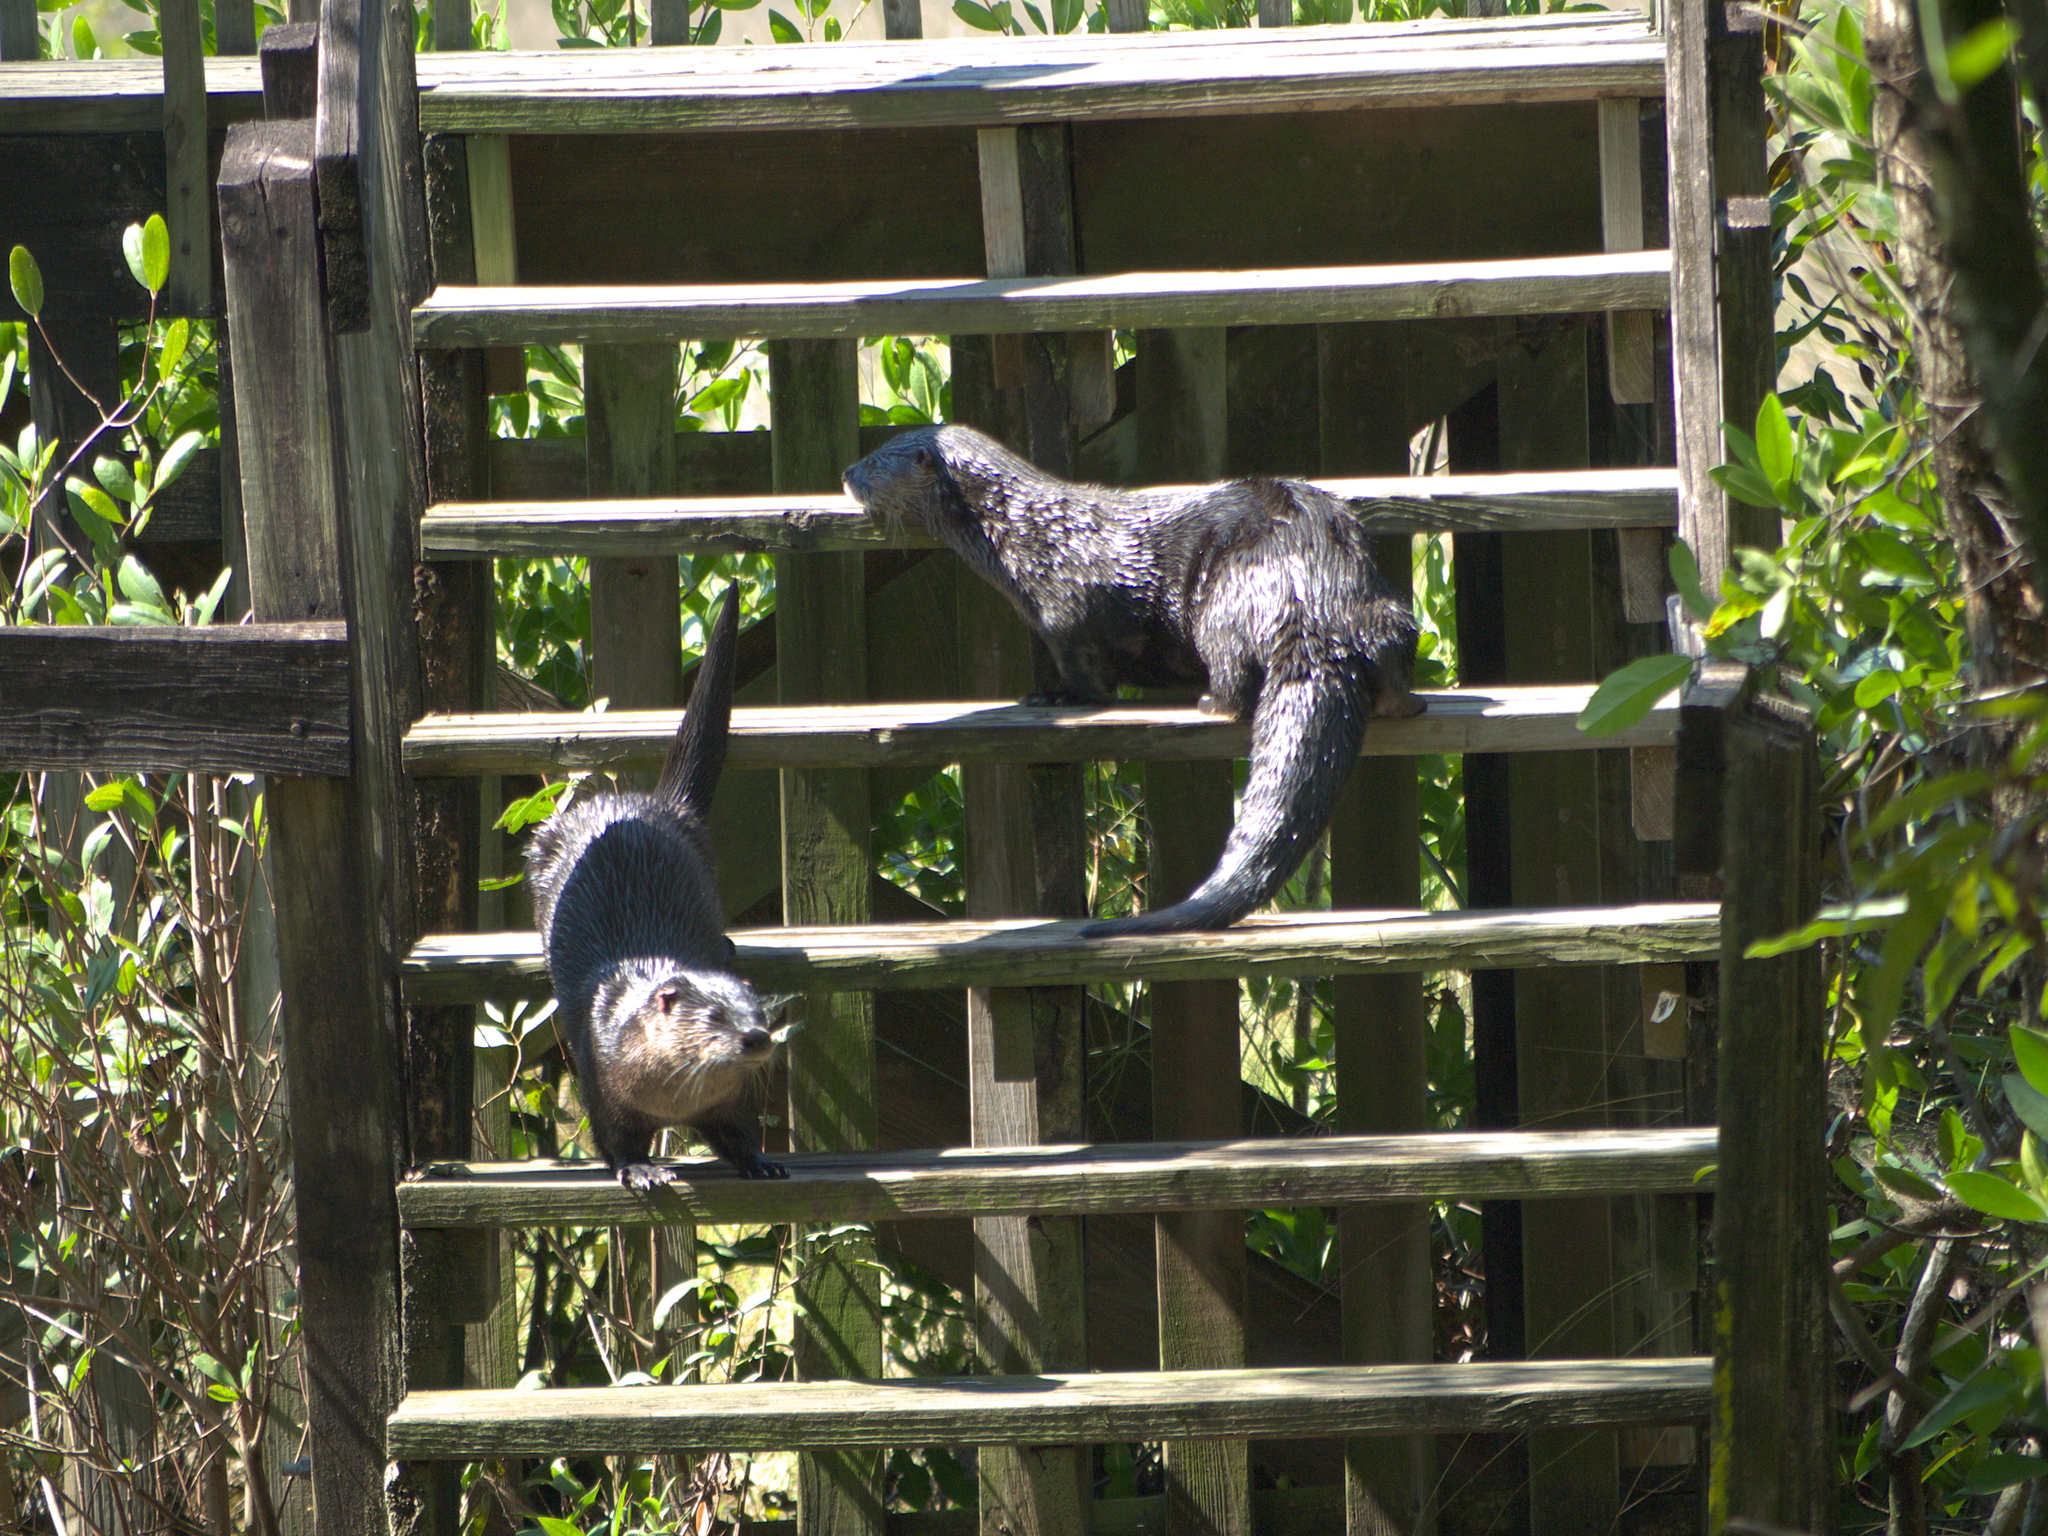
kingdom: Animalia
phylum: Chordata
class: Mammalia
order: Carnivora
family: Mustelidae
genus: Lontra
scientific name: Lontra canadensis
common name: North american river otter
